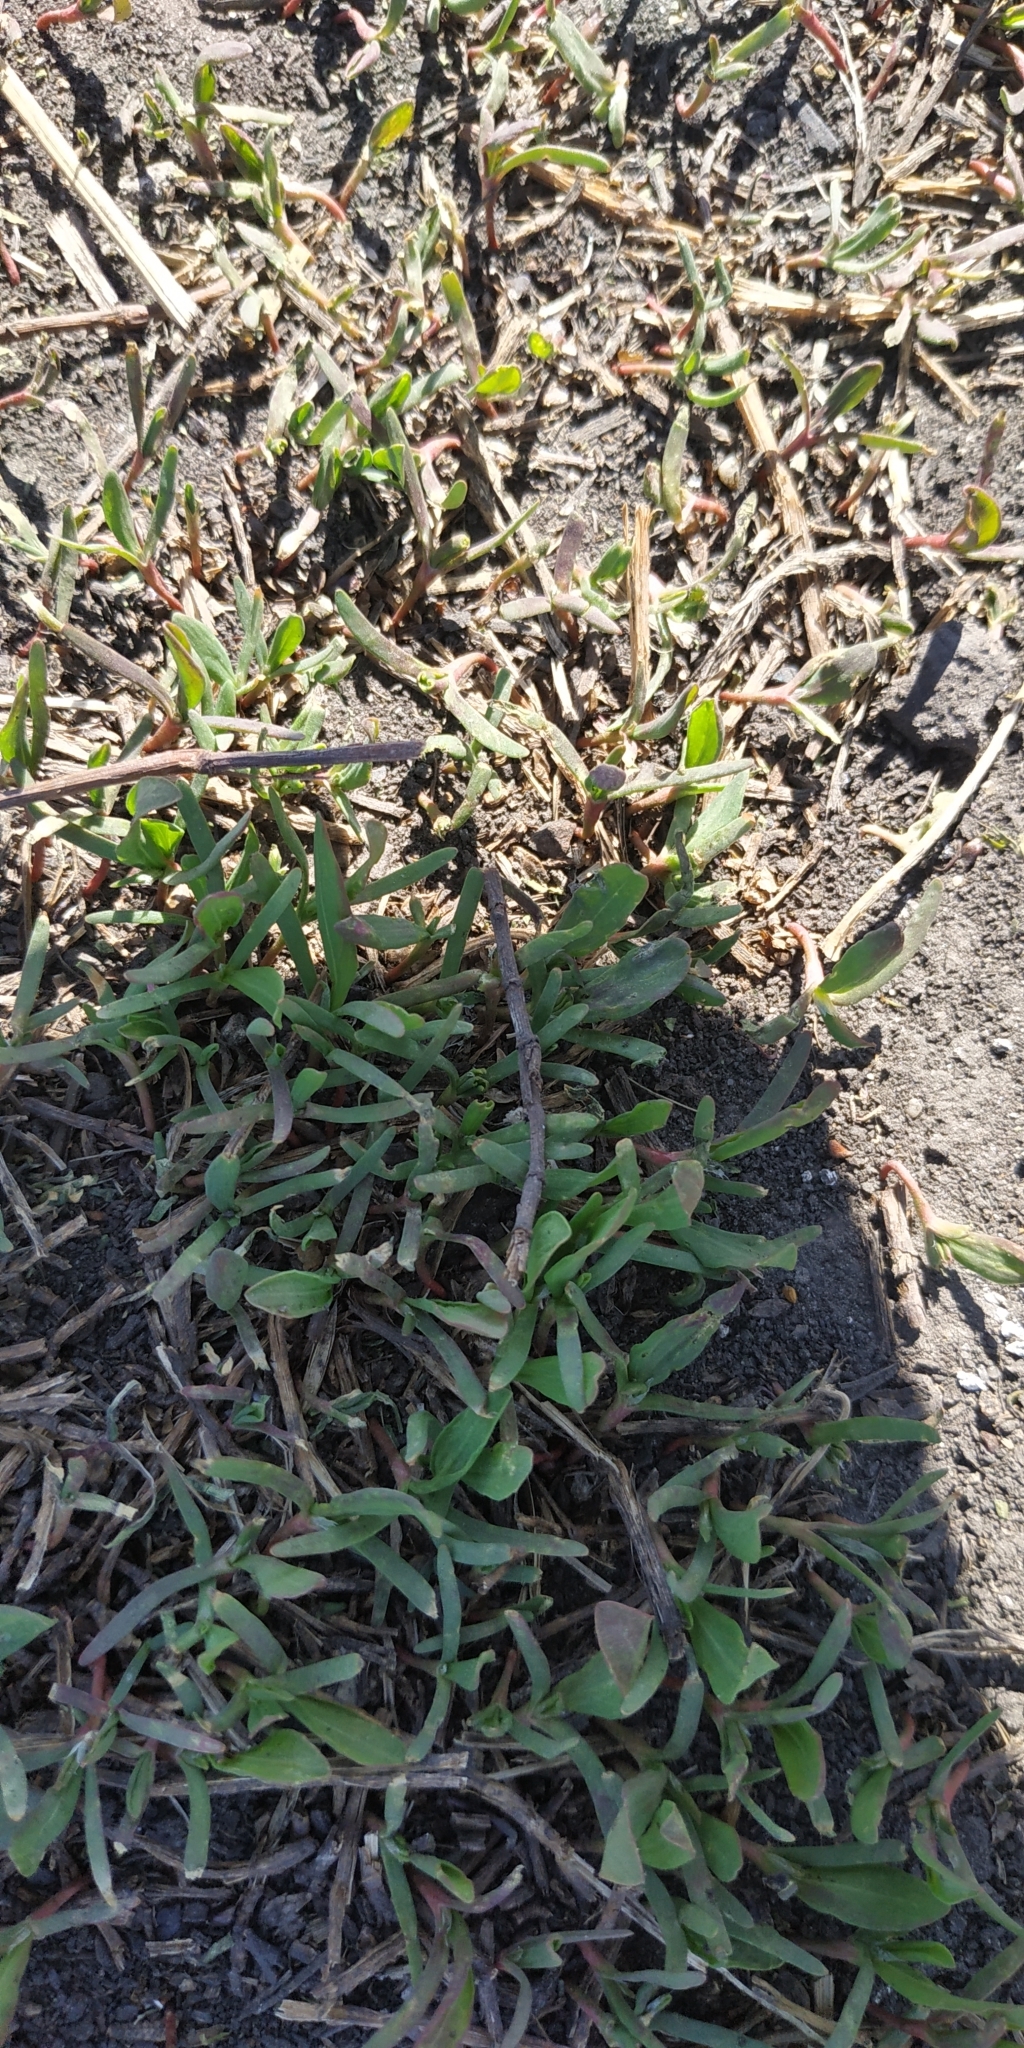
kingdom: Plantae
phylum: Tracheophyta
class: Magnoliopsida
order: Caryophyllales
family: Polygonaceae
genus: Polygonum
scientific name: Polygonum aviculare
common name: Prostrate knotweed
